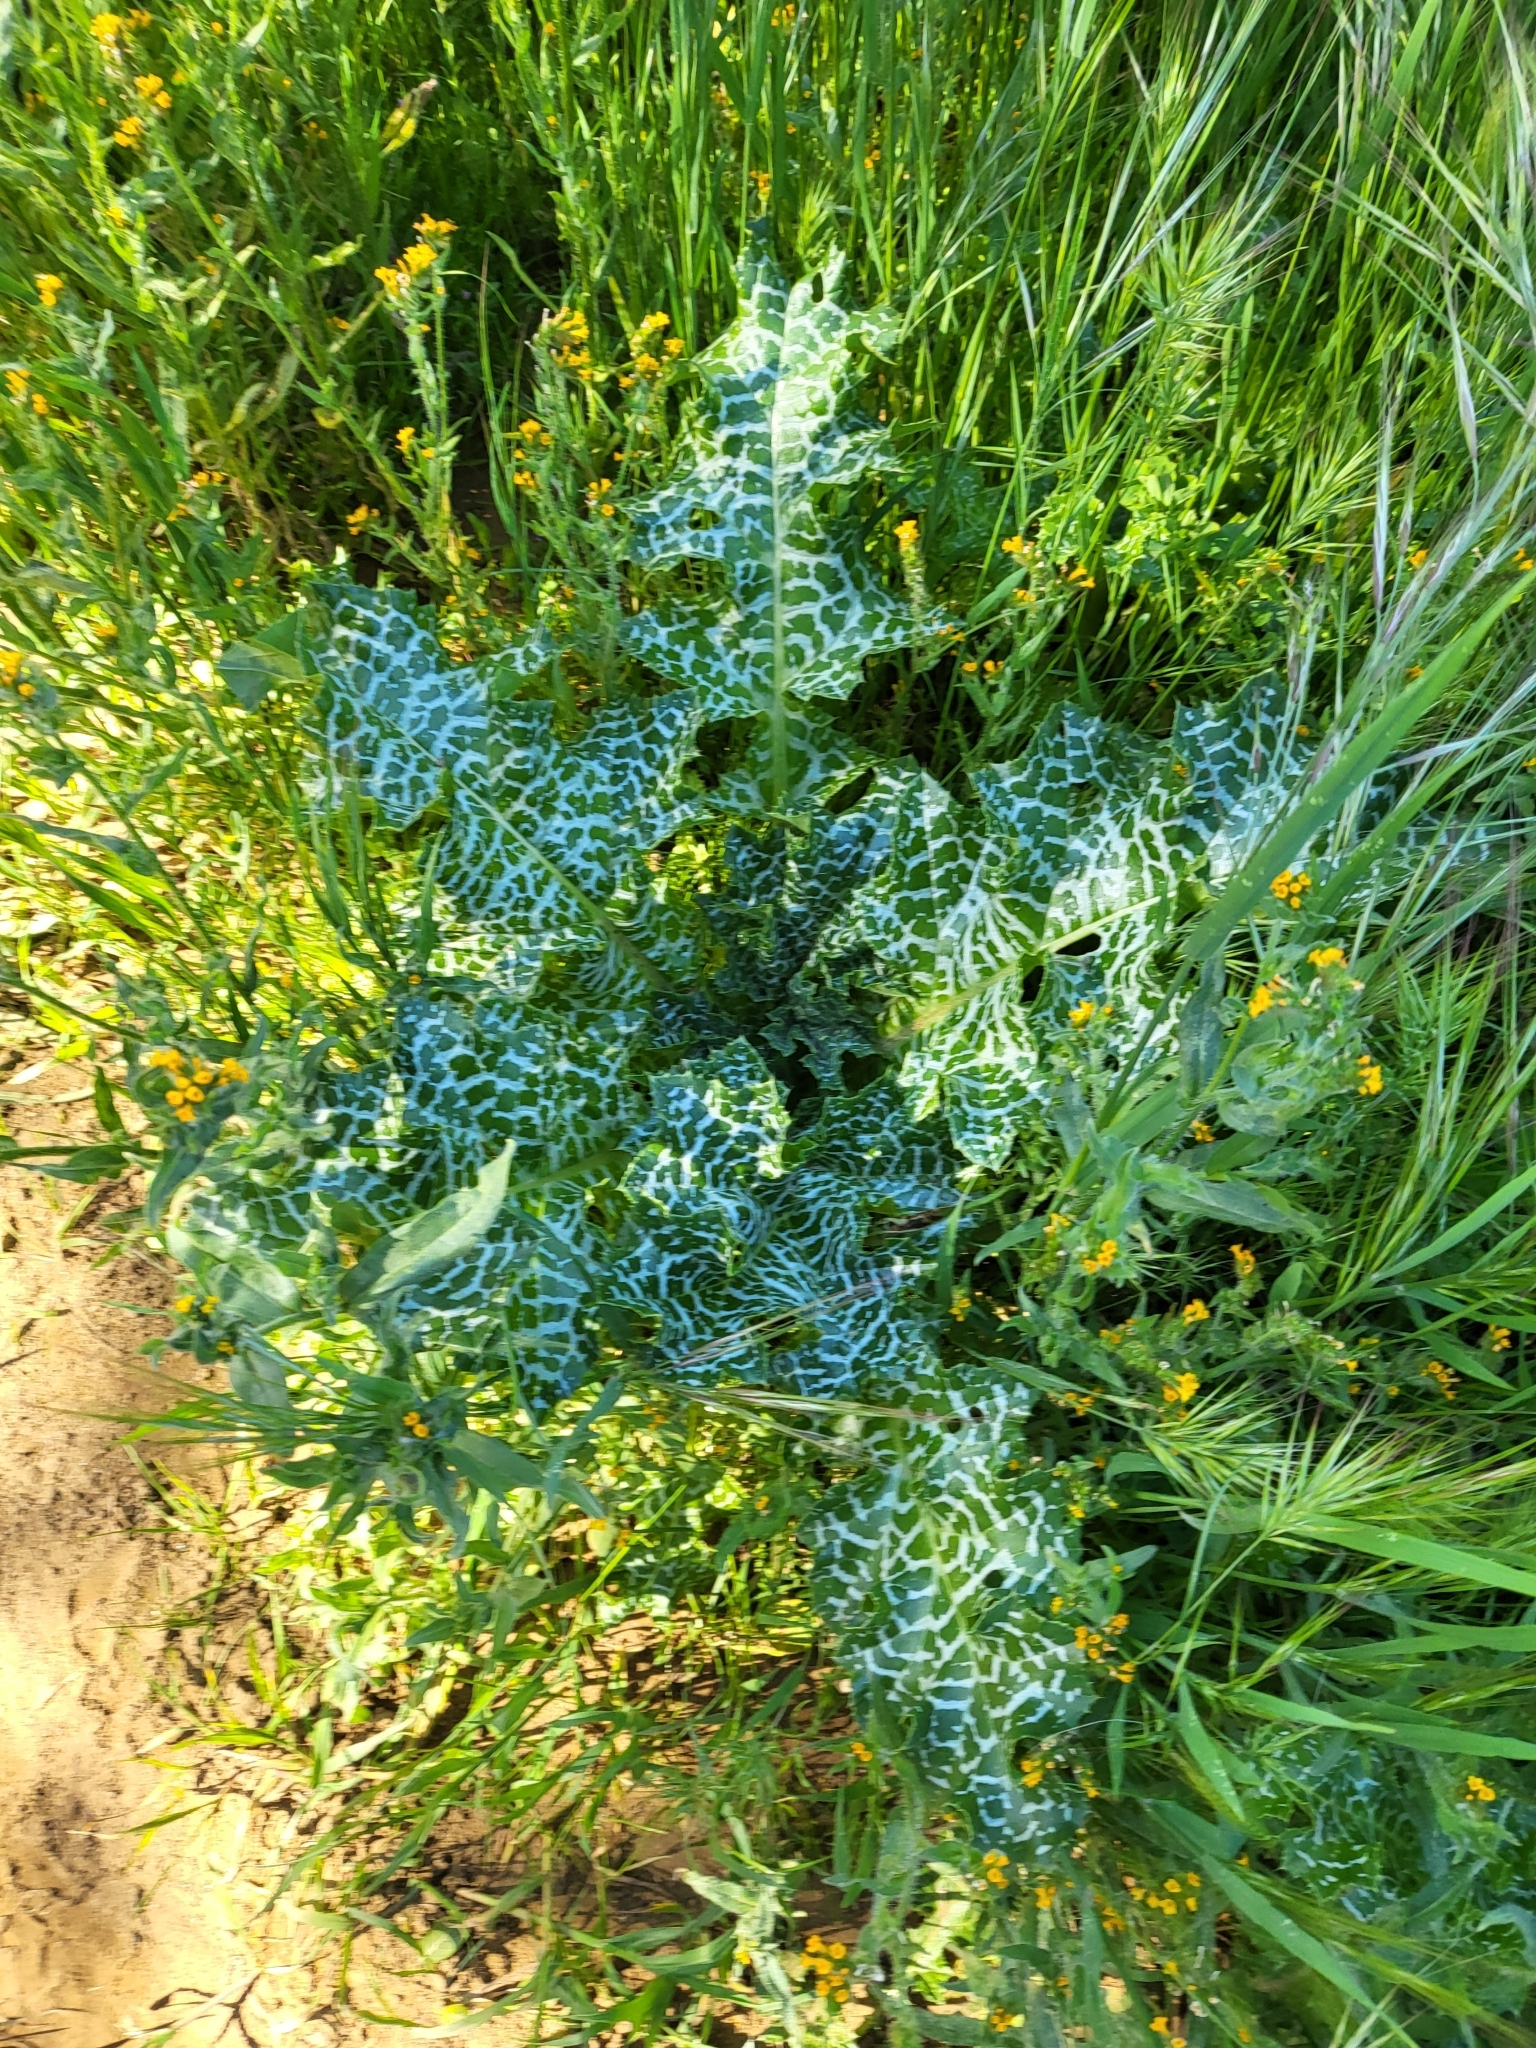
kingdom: Plantae
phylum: Tracheophyta
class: Magnoliopsida
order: Asterales
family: Asteraceae
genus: Silybum
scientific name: Silybum marianum
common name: Milk thistle
